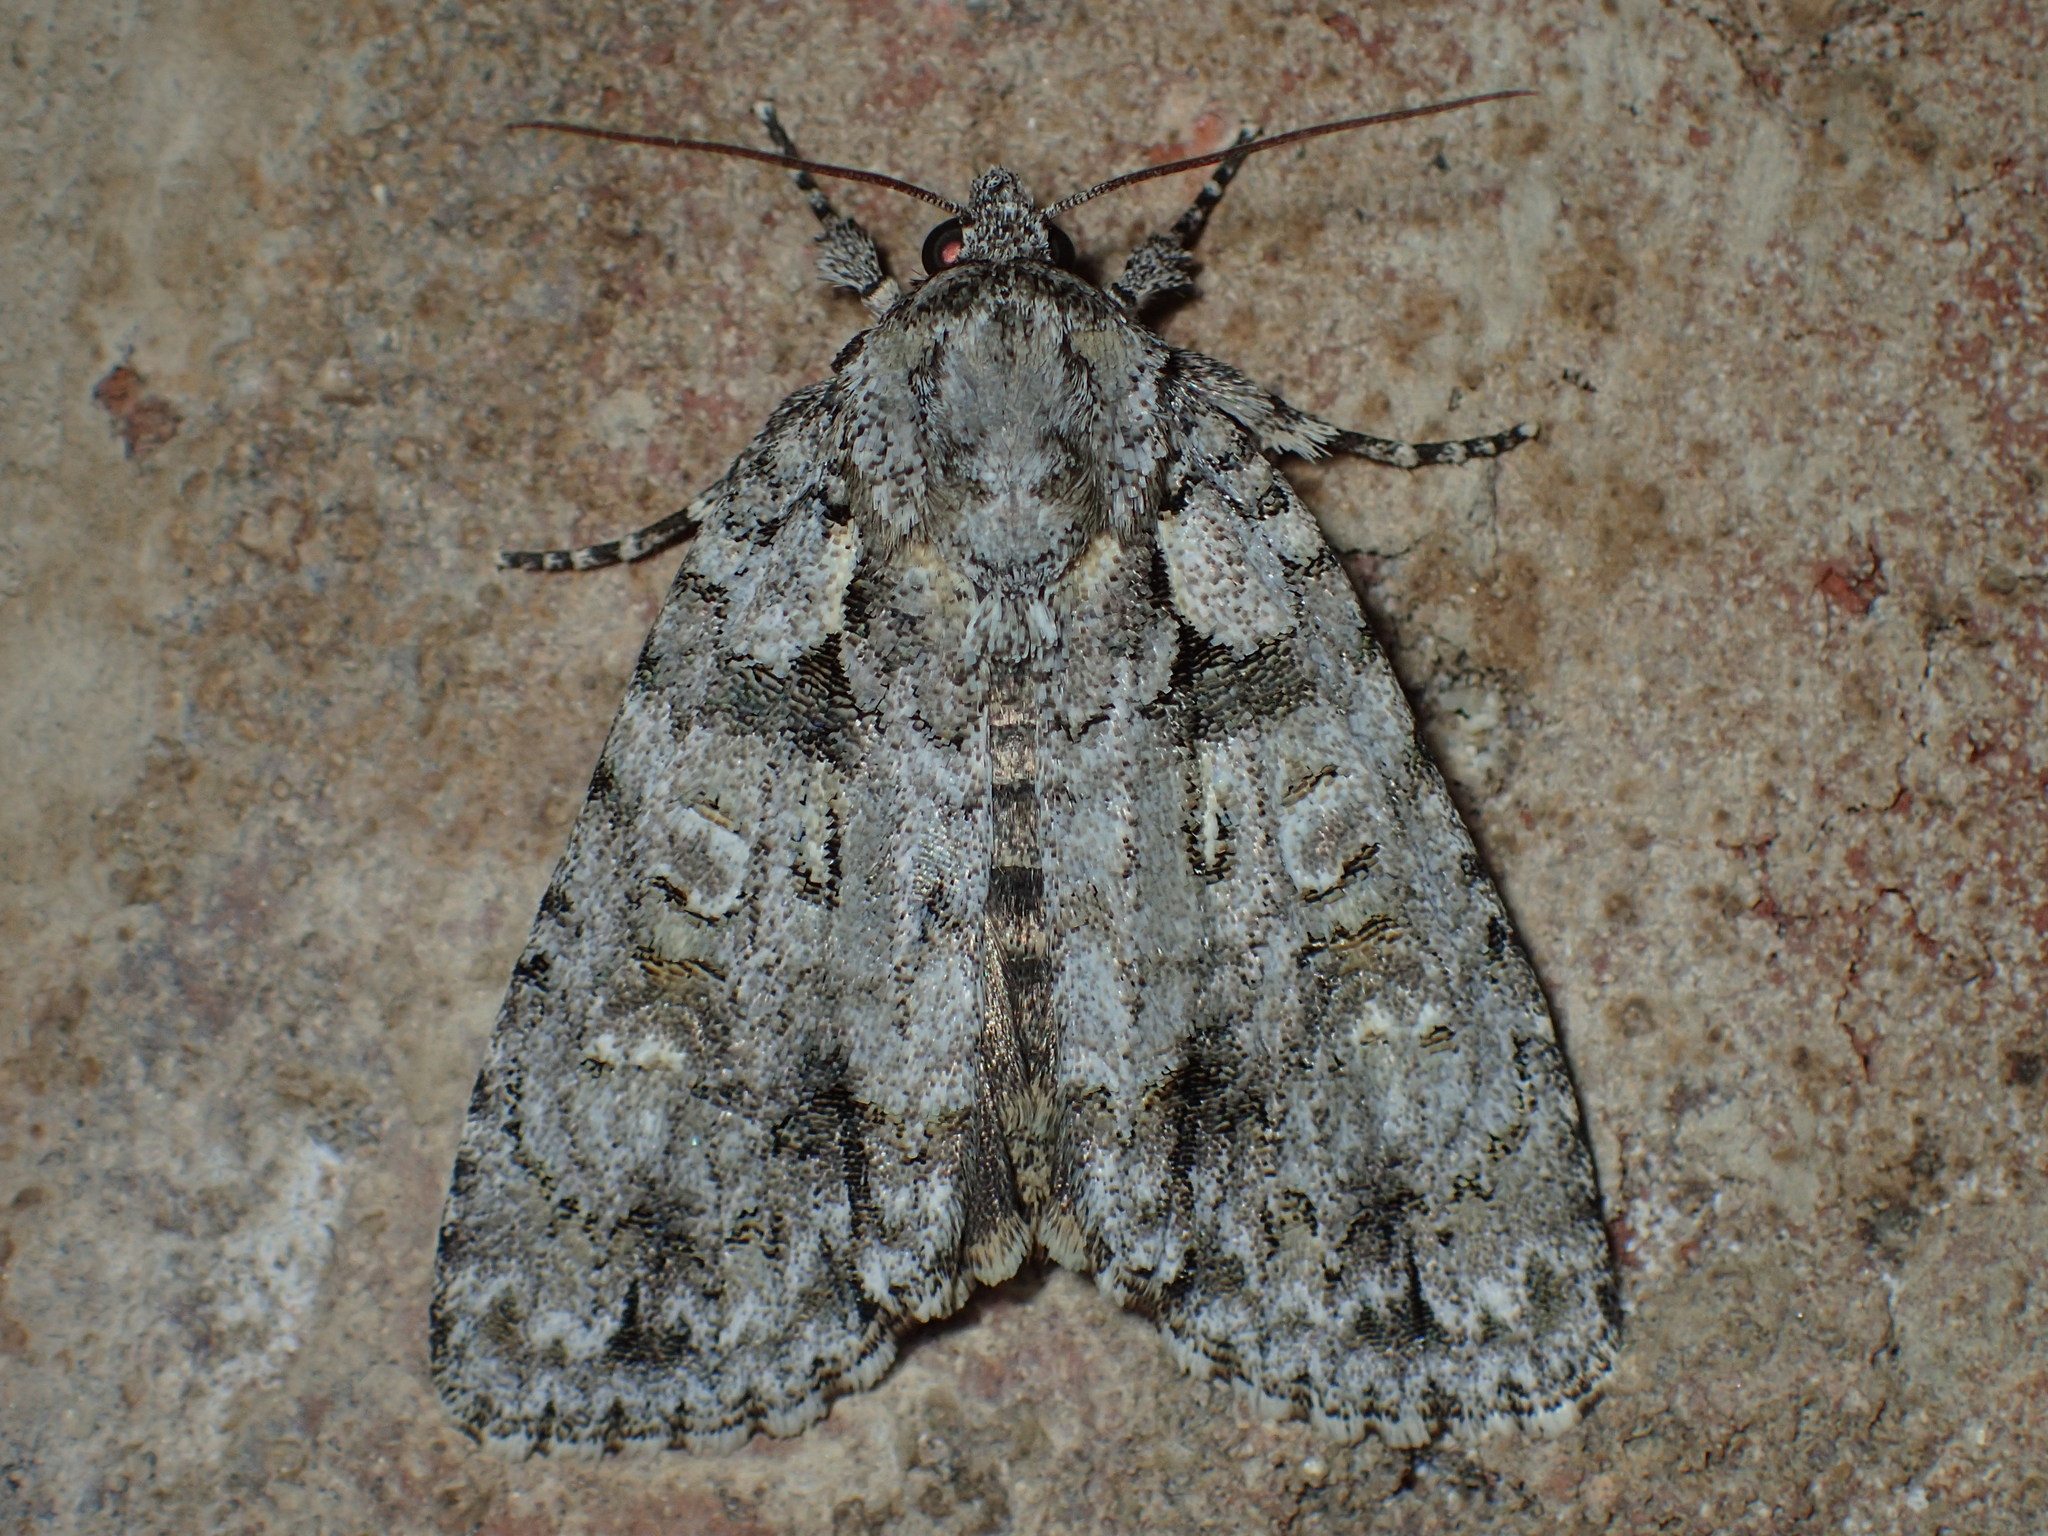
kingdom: Animalia
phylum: Arthropoda
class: Insecta
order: Lepidoptera
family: Noctuidae
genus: Acronicta
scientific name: Acronicta increta
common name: Eclipsed oak dagger
